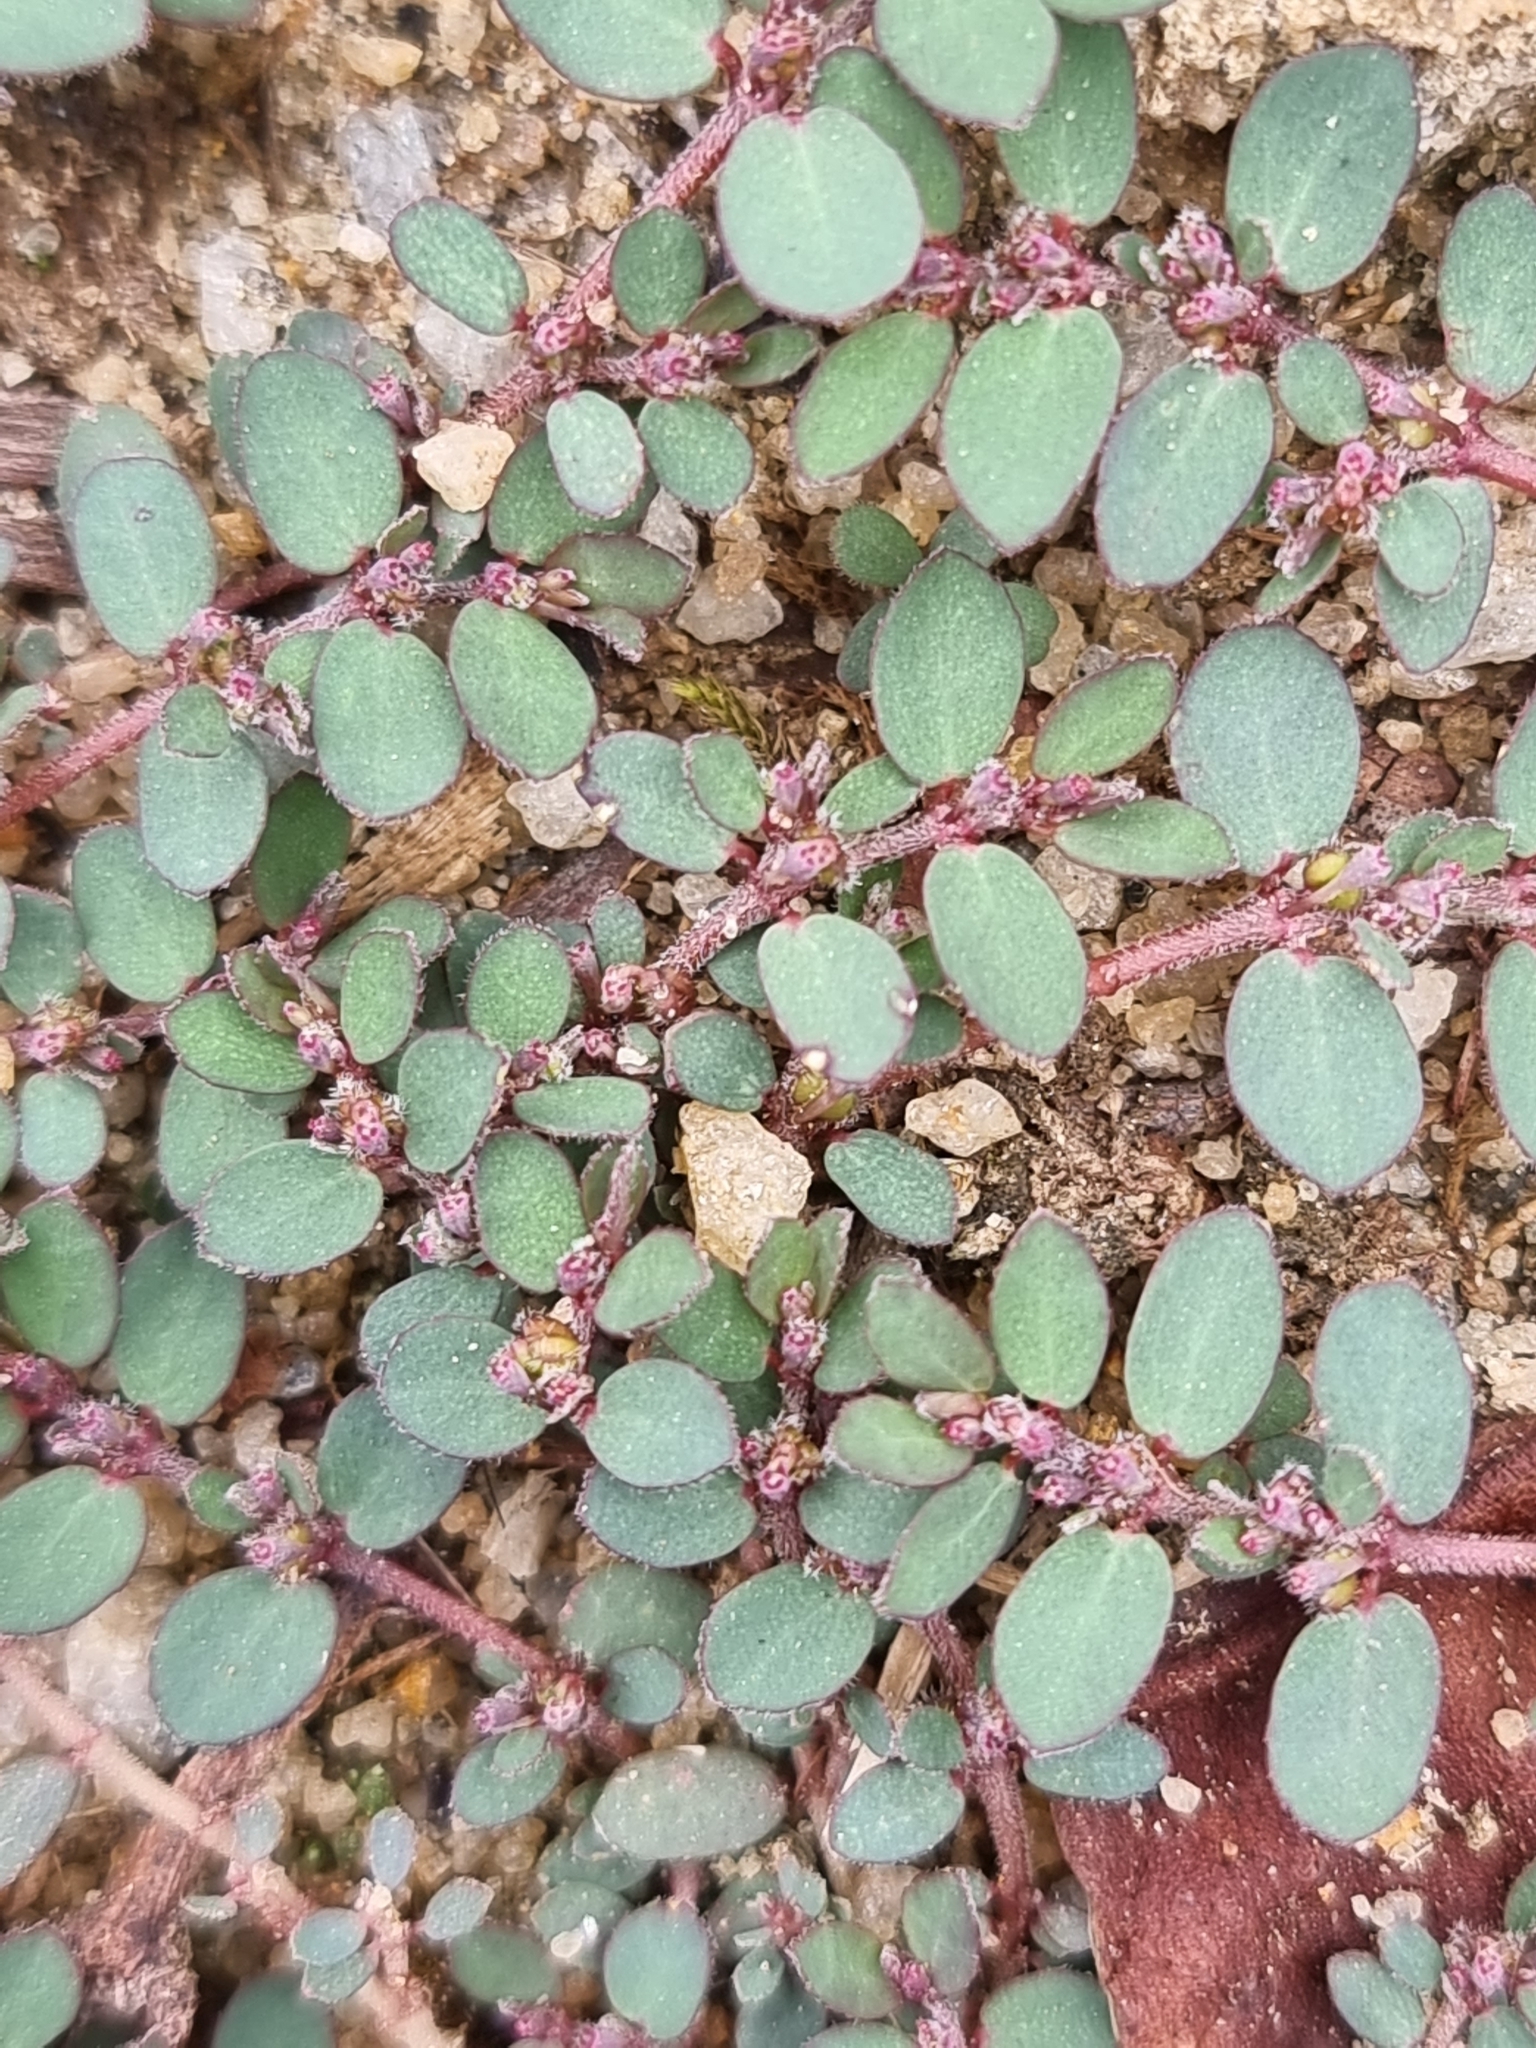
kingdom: Plantae
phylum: Tracheophyta
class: Magnoliopsida
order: Malpighiales
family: Euphorbiaceae
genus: Euphorbia
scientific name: Euphorbia prostrata
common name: Prostrate sandmat
